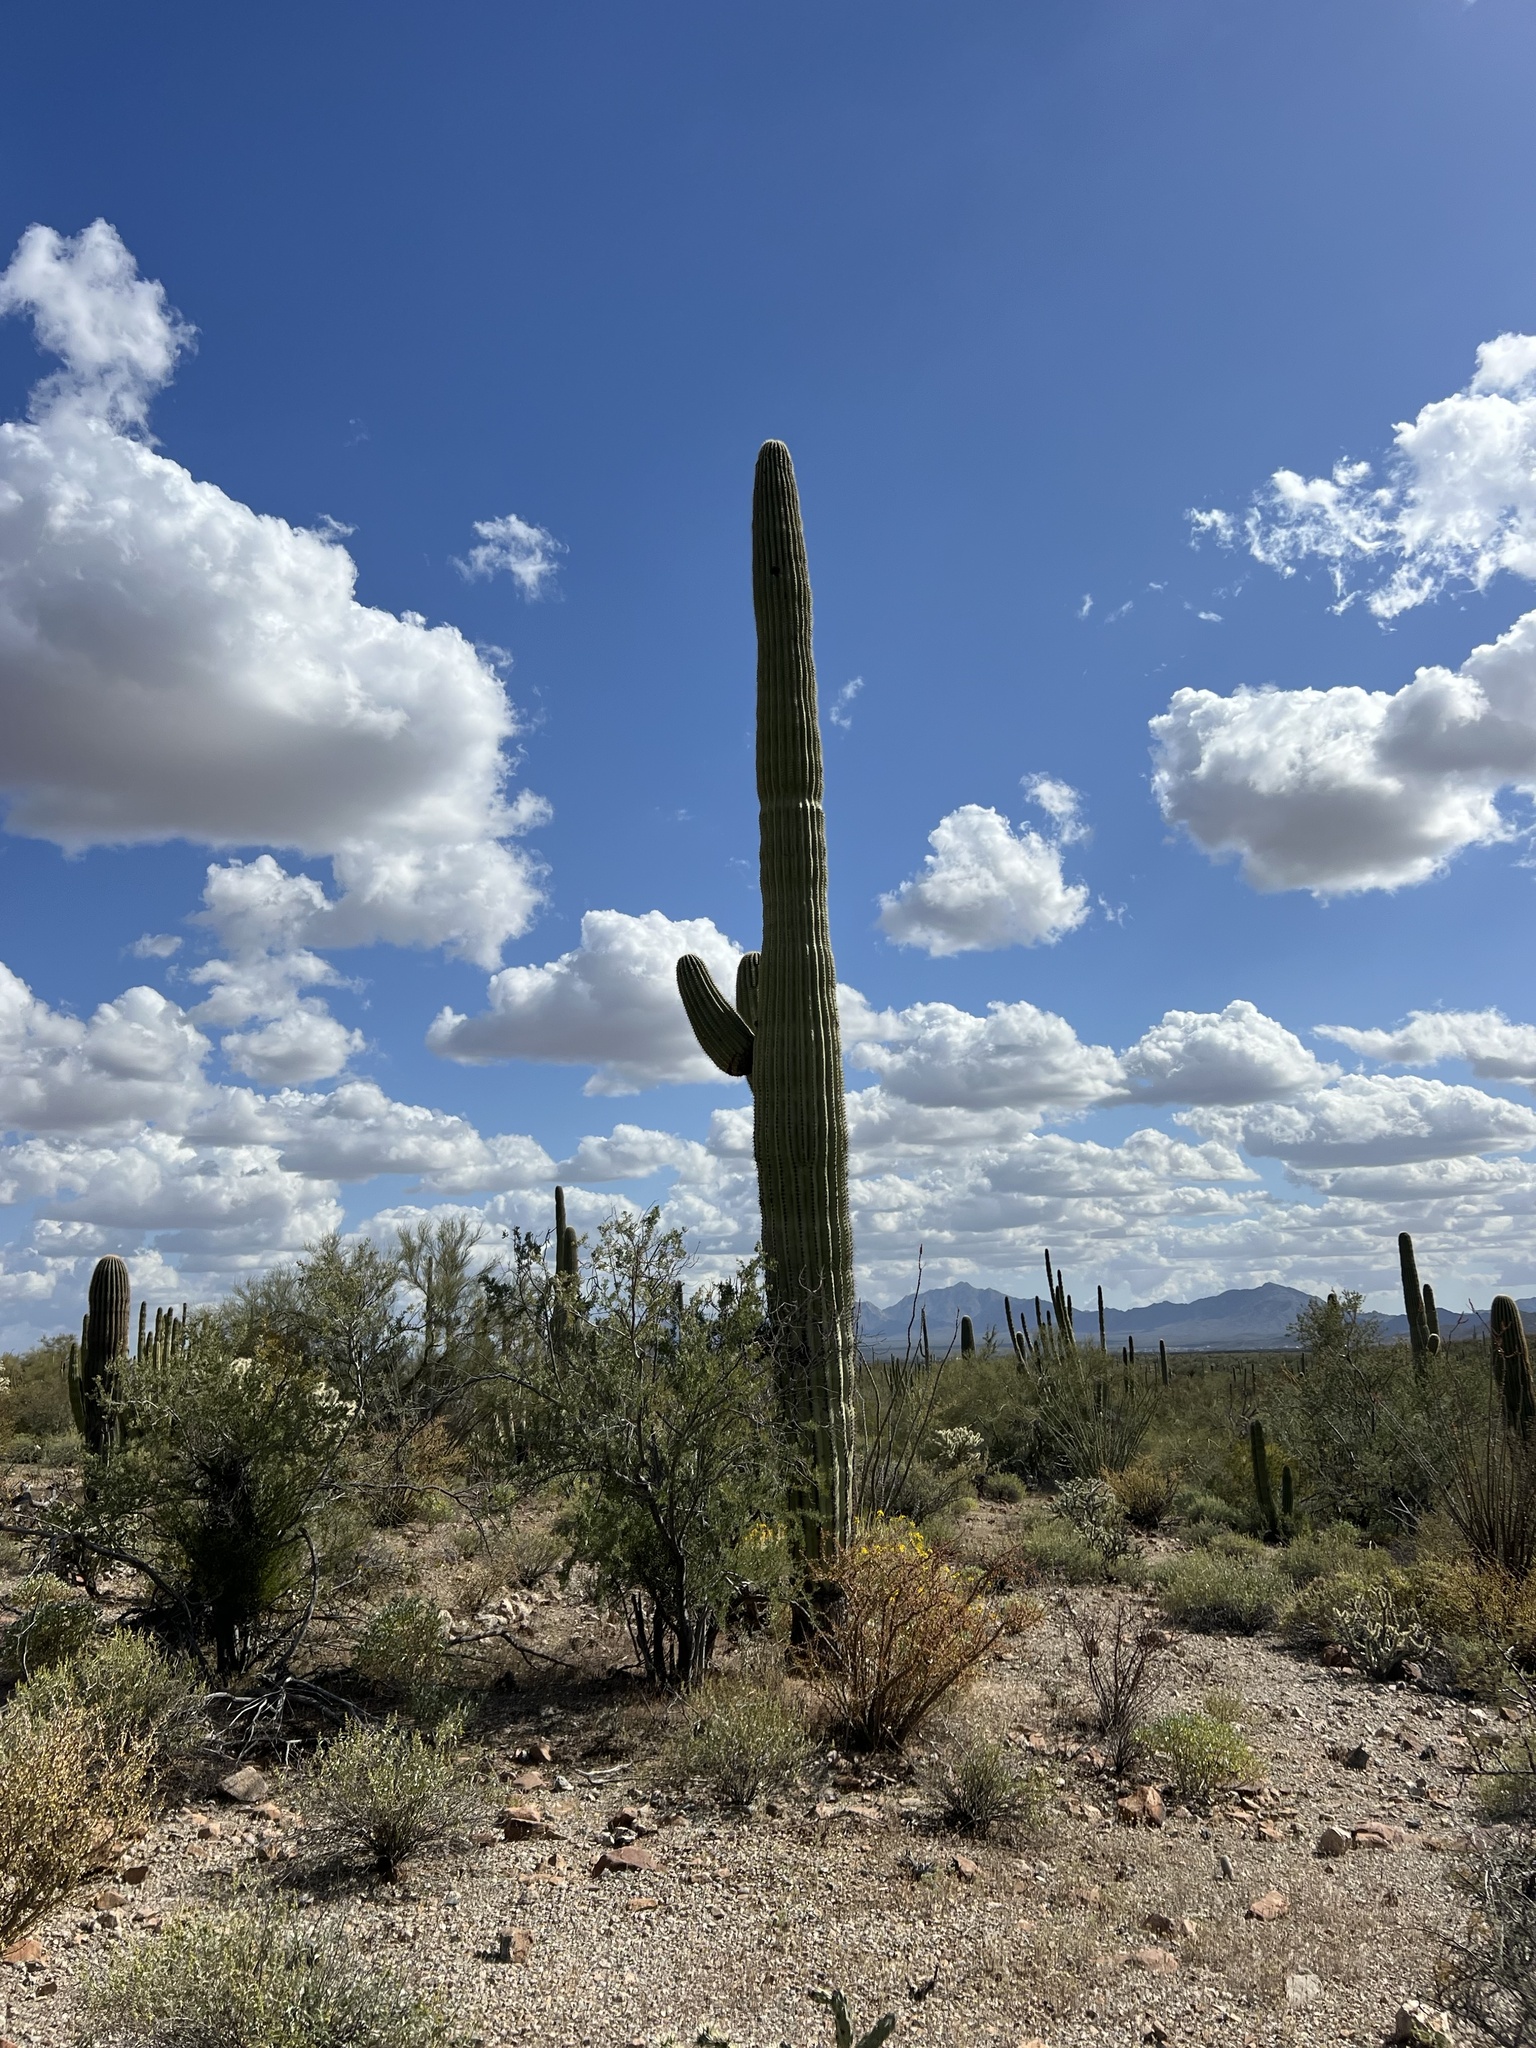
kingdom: Plantae
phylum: Tracheophyta
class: Magnoliopsida
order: Caryophyllales
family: Cactaceae
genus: Carnegiea
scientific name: Carnegiea gigantea
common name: Saguaro
